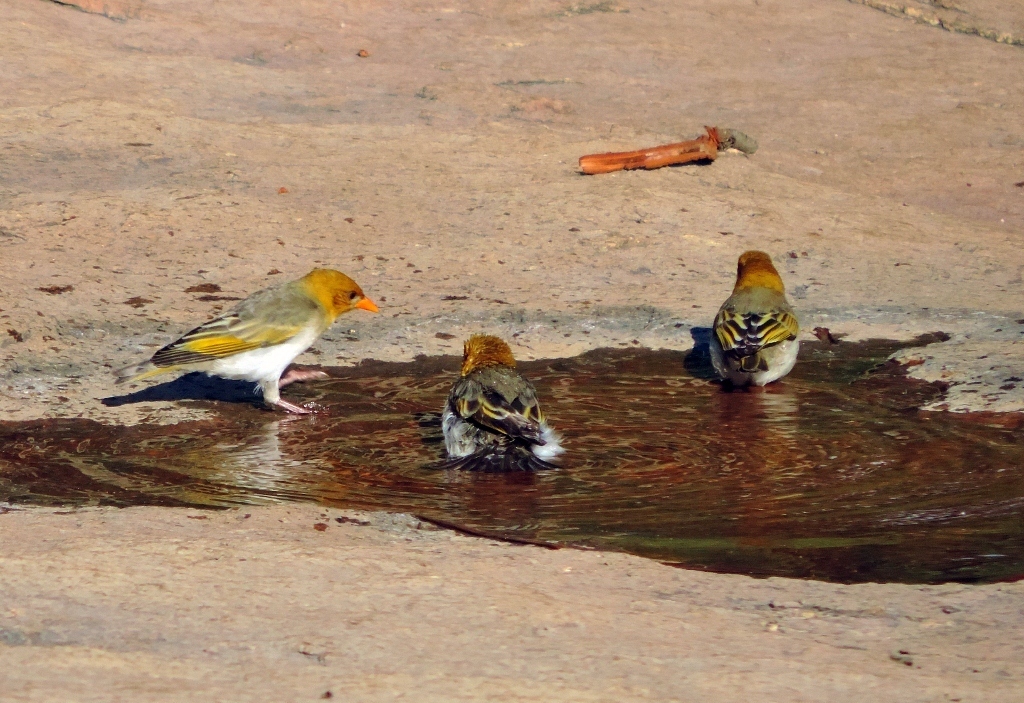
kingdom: Animalia
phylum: Chordata
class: Aves
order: Passeriformes
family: Ploceidae
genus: Anaplectes
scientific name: Anaplectes rubriceps
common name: Red-headed weaver
